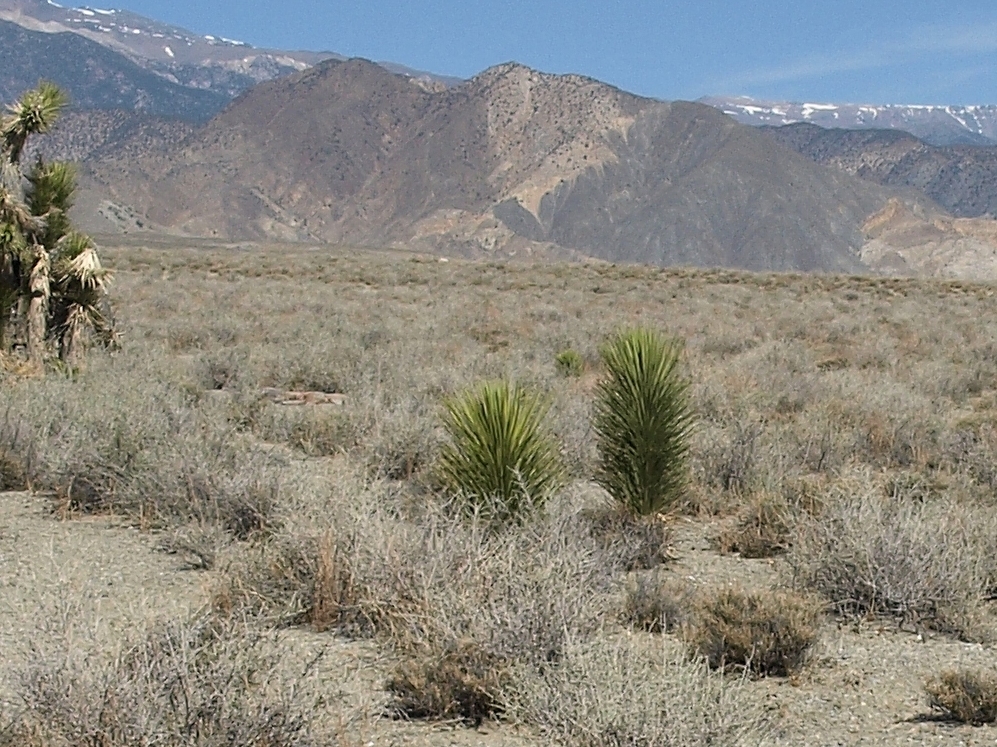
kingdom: Plantae
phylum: Tracheophyta
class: Liliopsida
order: Asparagales
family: Asparagaceae
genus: Yucca
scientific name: Yucca brevifolia
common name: Joshua tree
